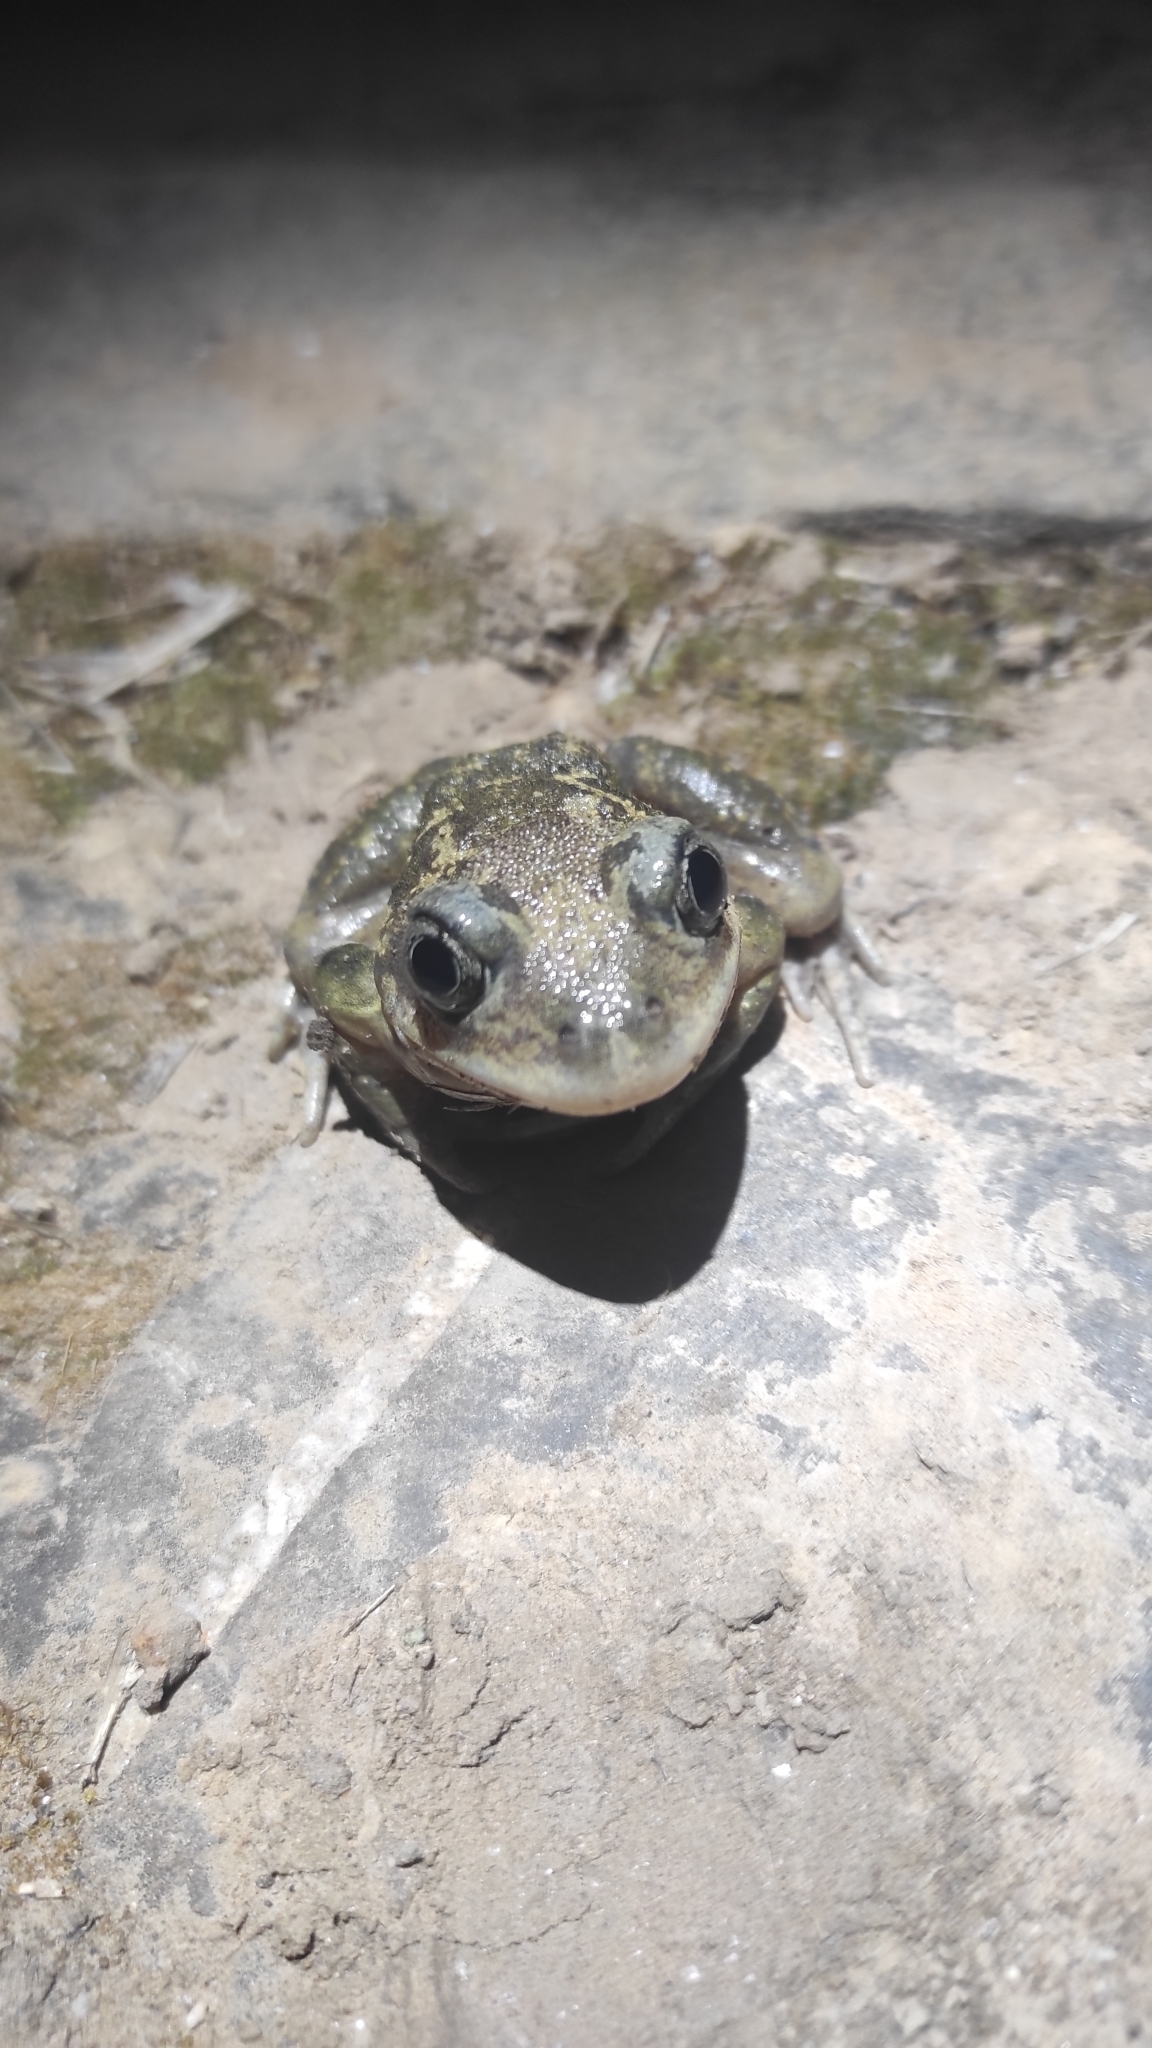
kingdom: Animalia
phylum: Chordata
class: Amphibia
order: Anura
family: Pelobatidae
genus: Pelobates
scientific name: Pelobates cultripes
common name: Western spadefoot
